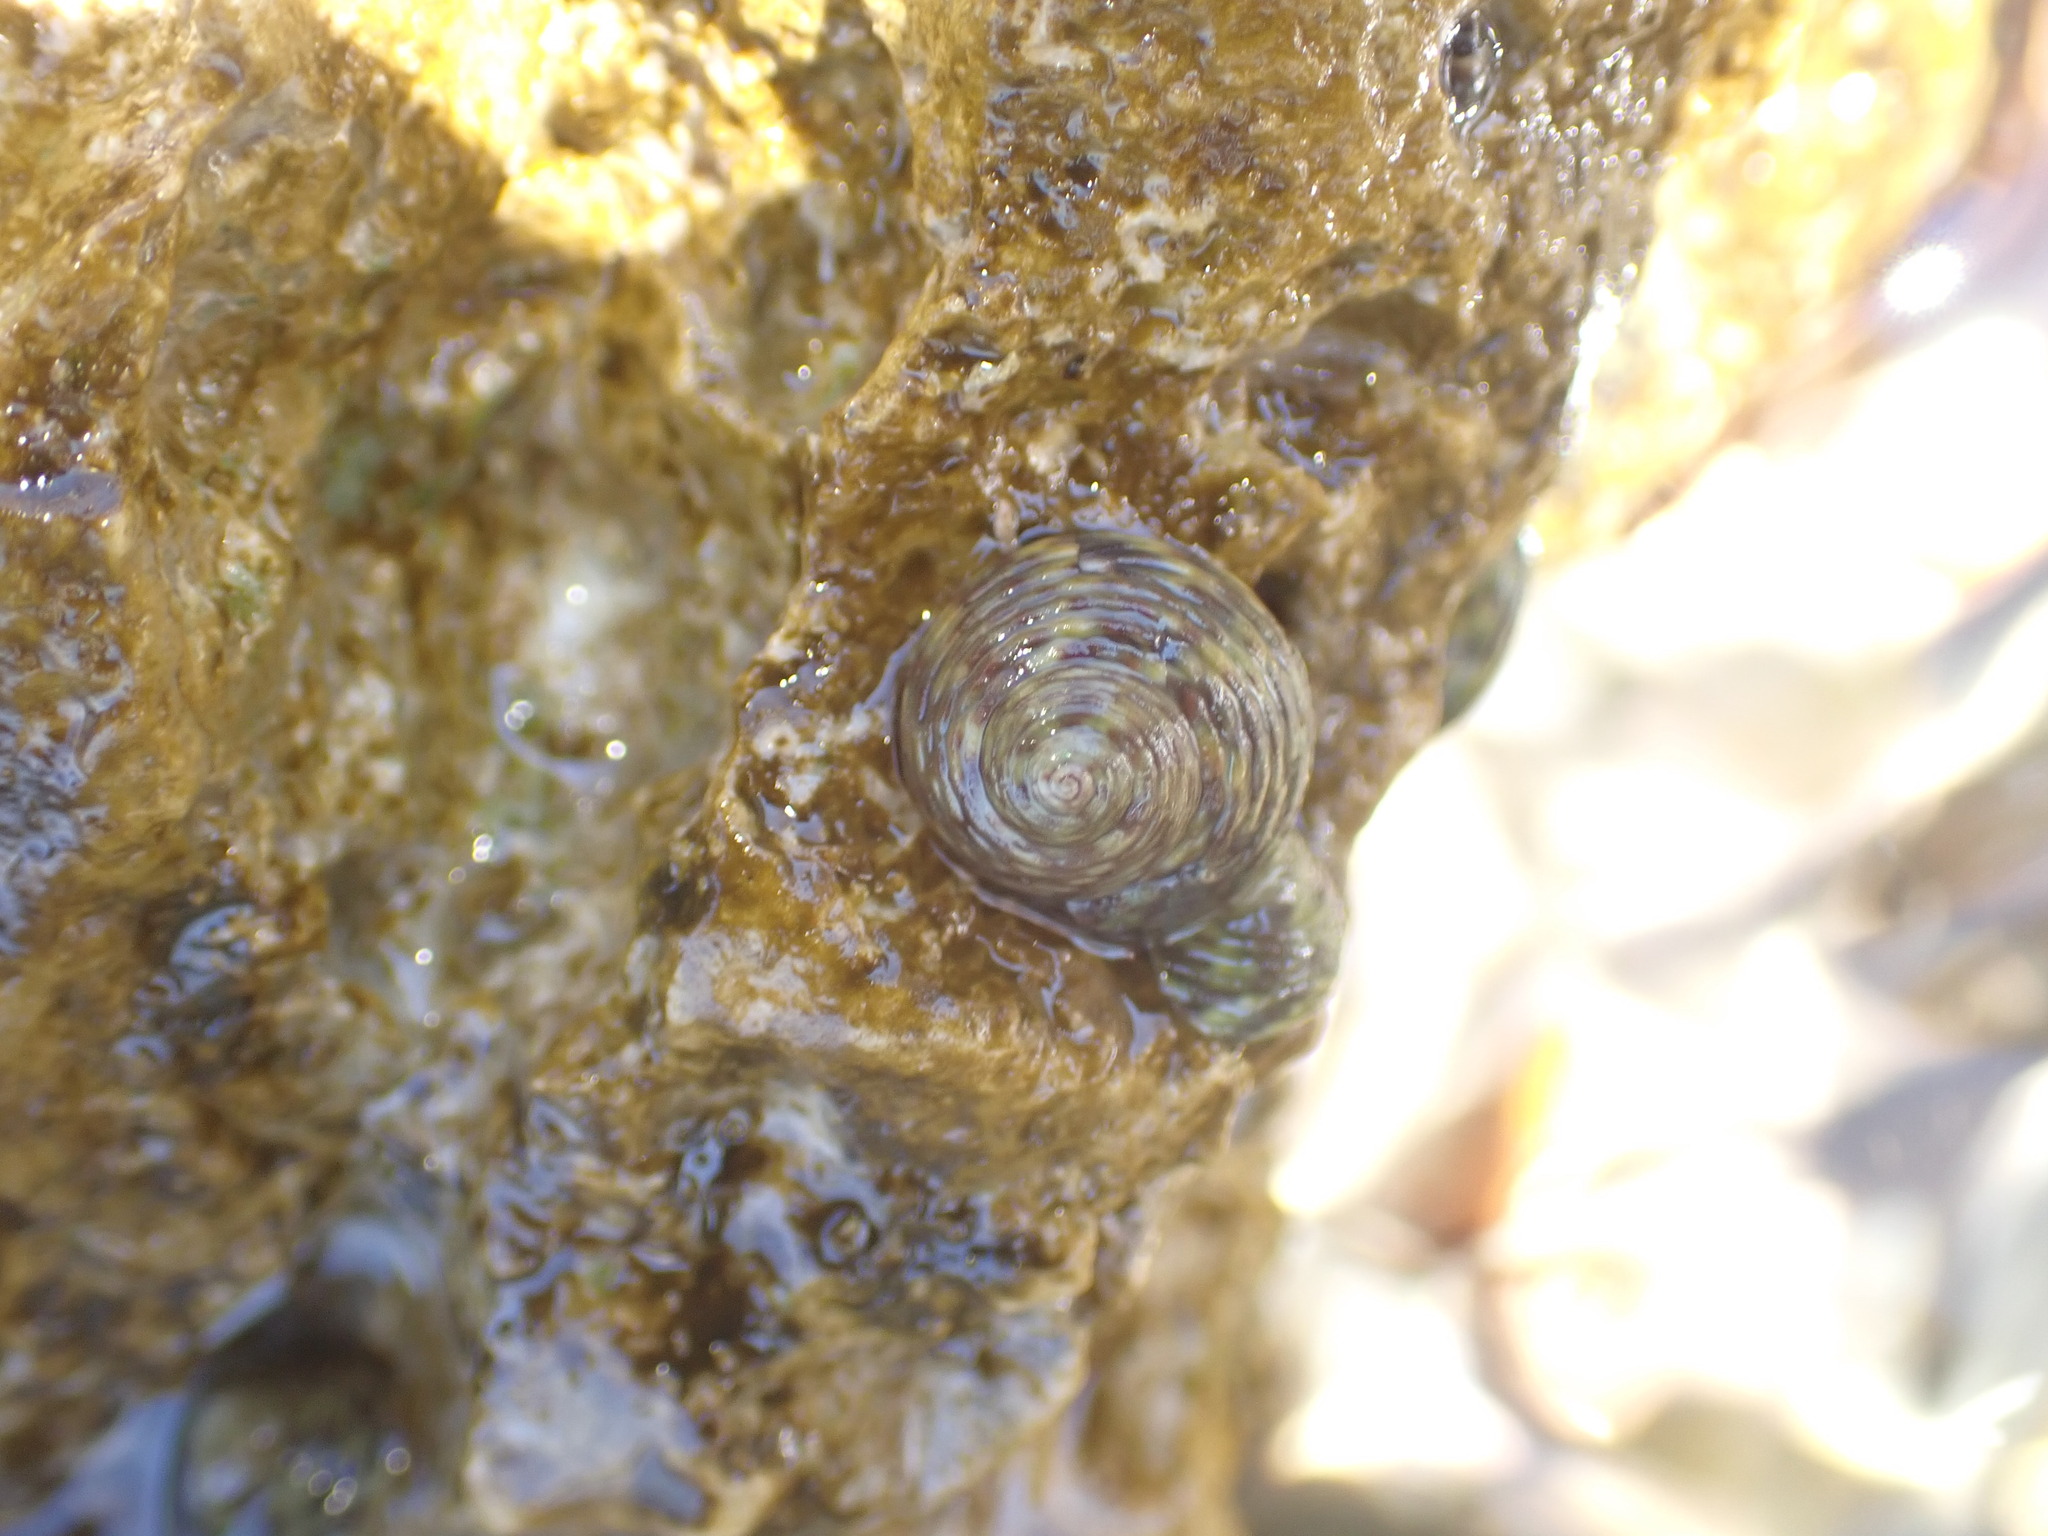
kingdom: Animalia
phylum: Mollusca
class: Gastropoda
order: Trochida
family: Trochidae
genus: Phorcus
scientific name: Phorcus turbinatus
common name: Turbinate monodont
